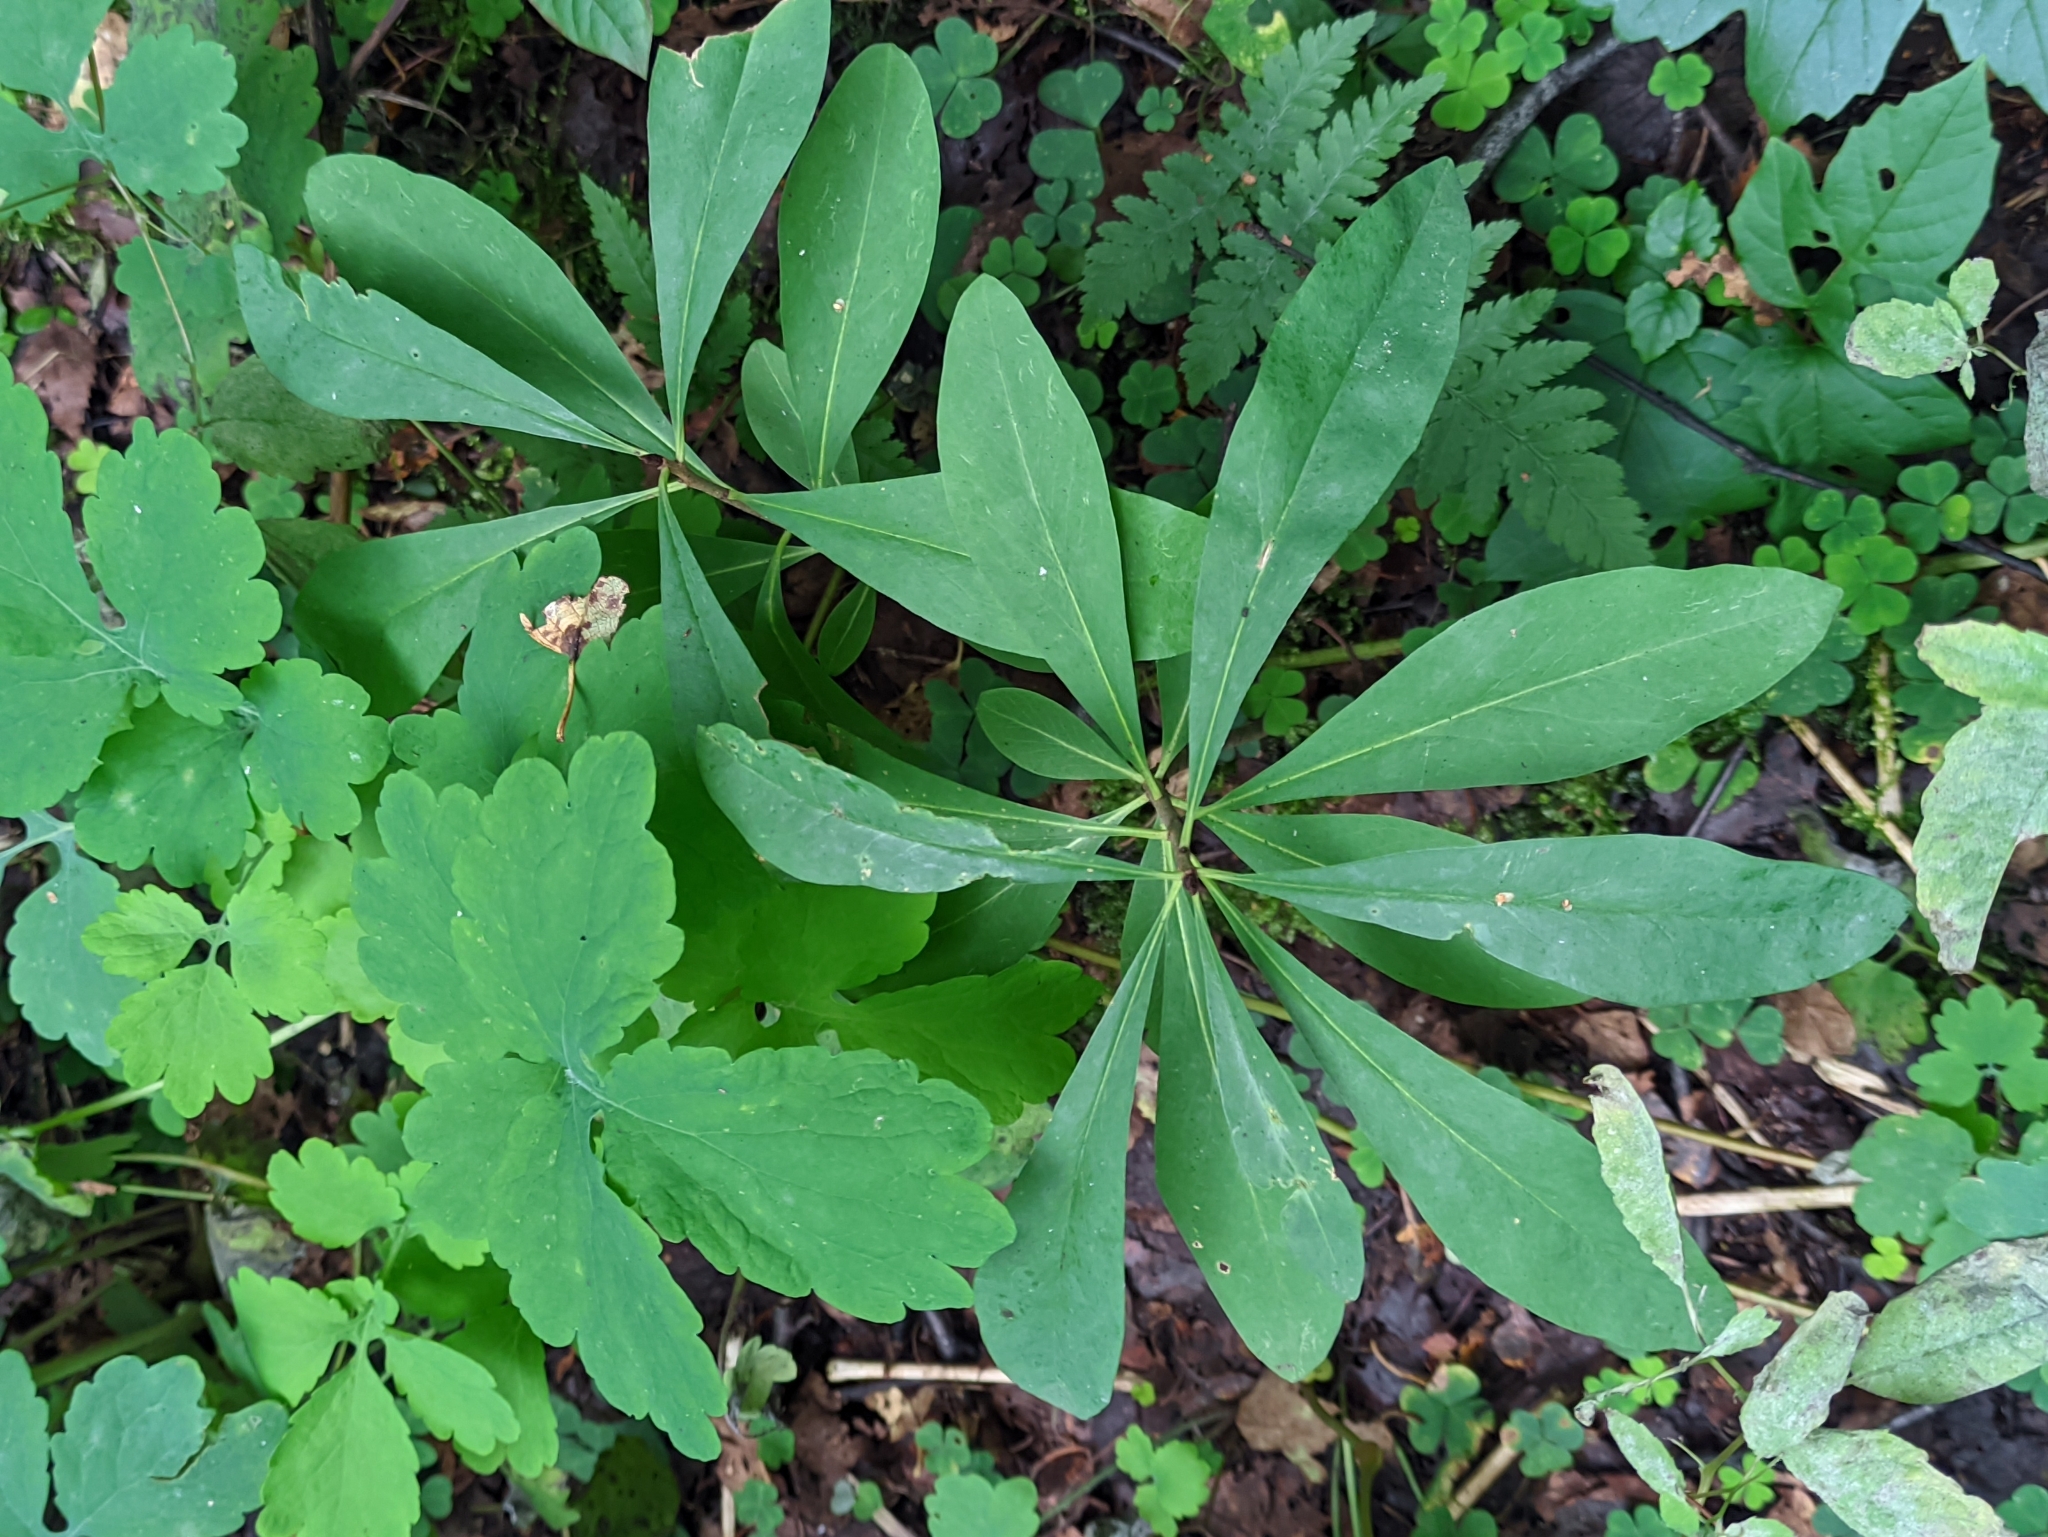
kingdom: Plantae
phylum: Tracheophyta
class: Magnoliopsida
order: Malvales
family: Thymelaeaceae
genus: Daphne
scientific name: Daphne mezereum
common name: Mezereon
